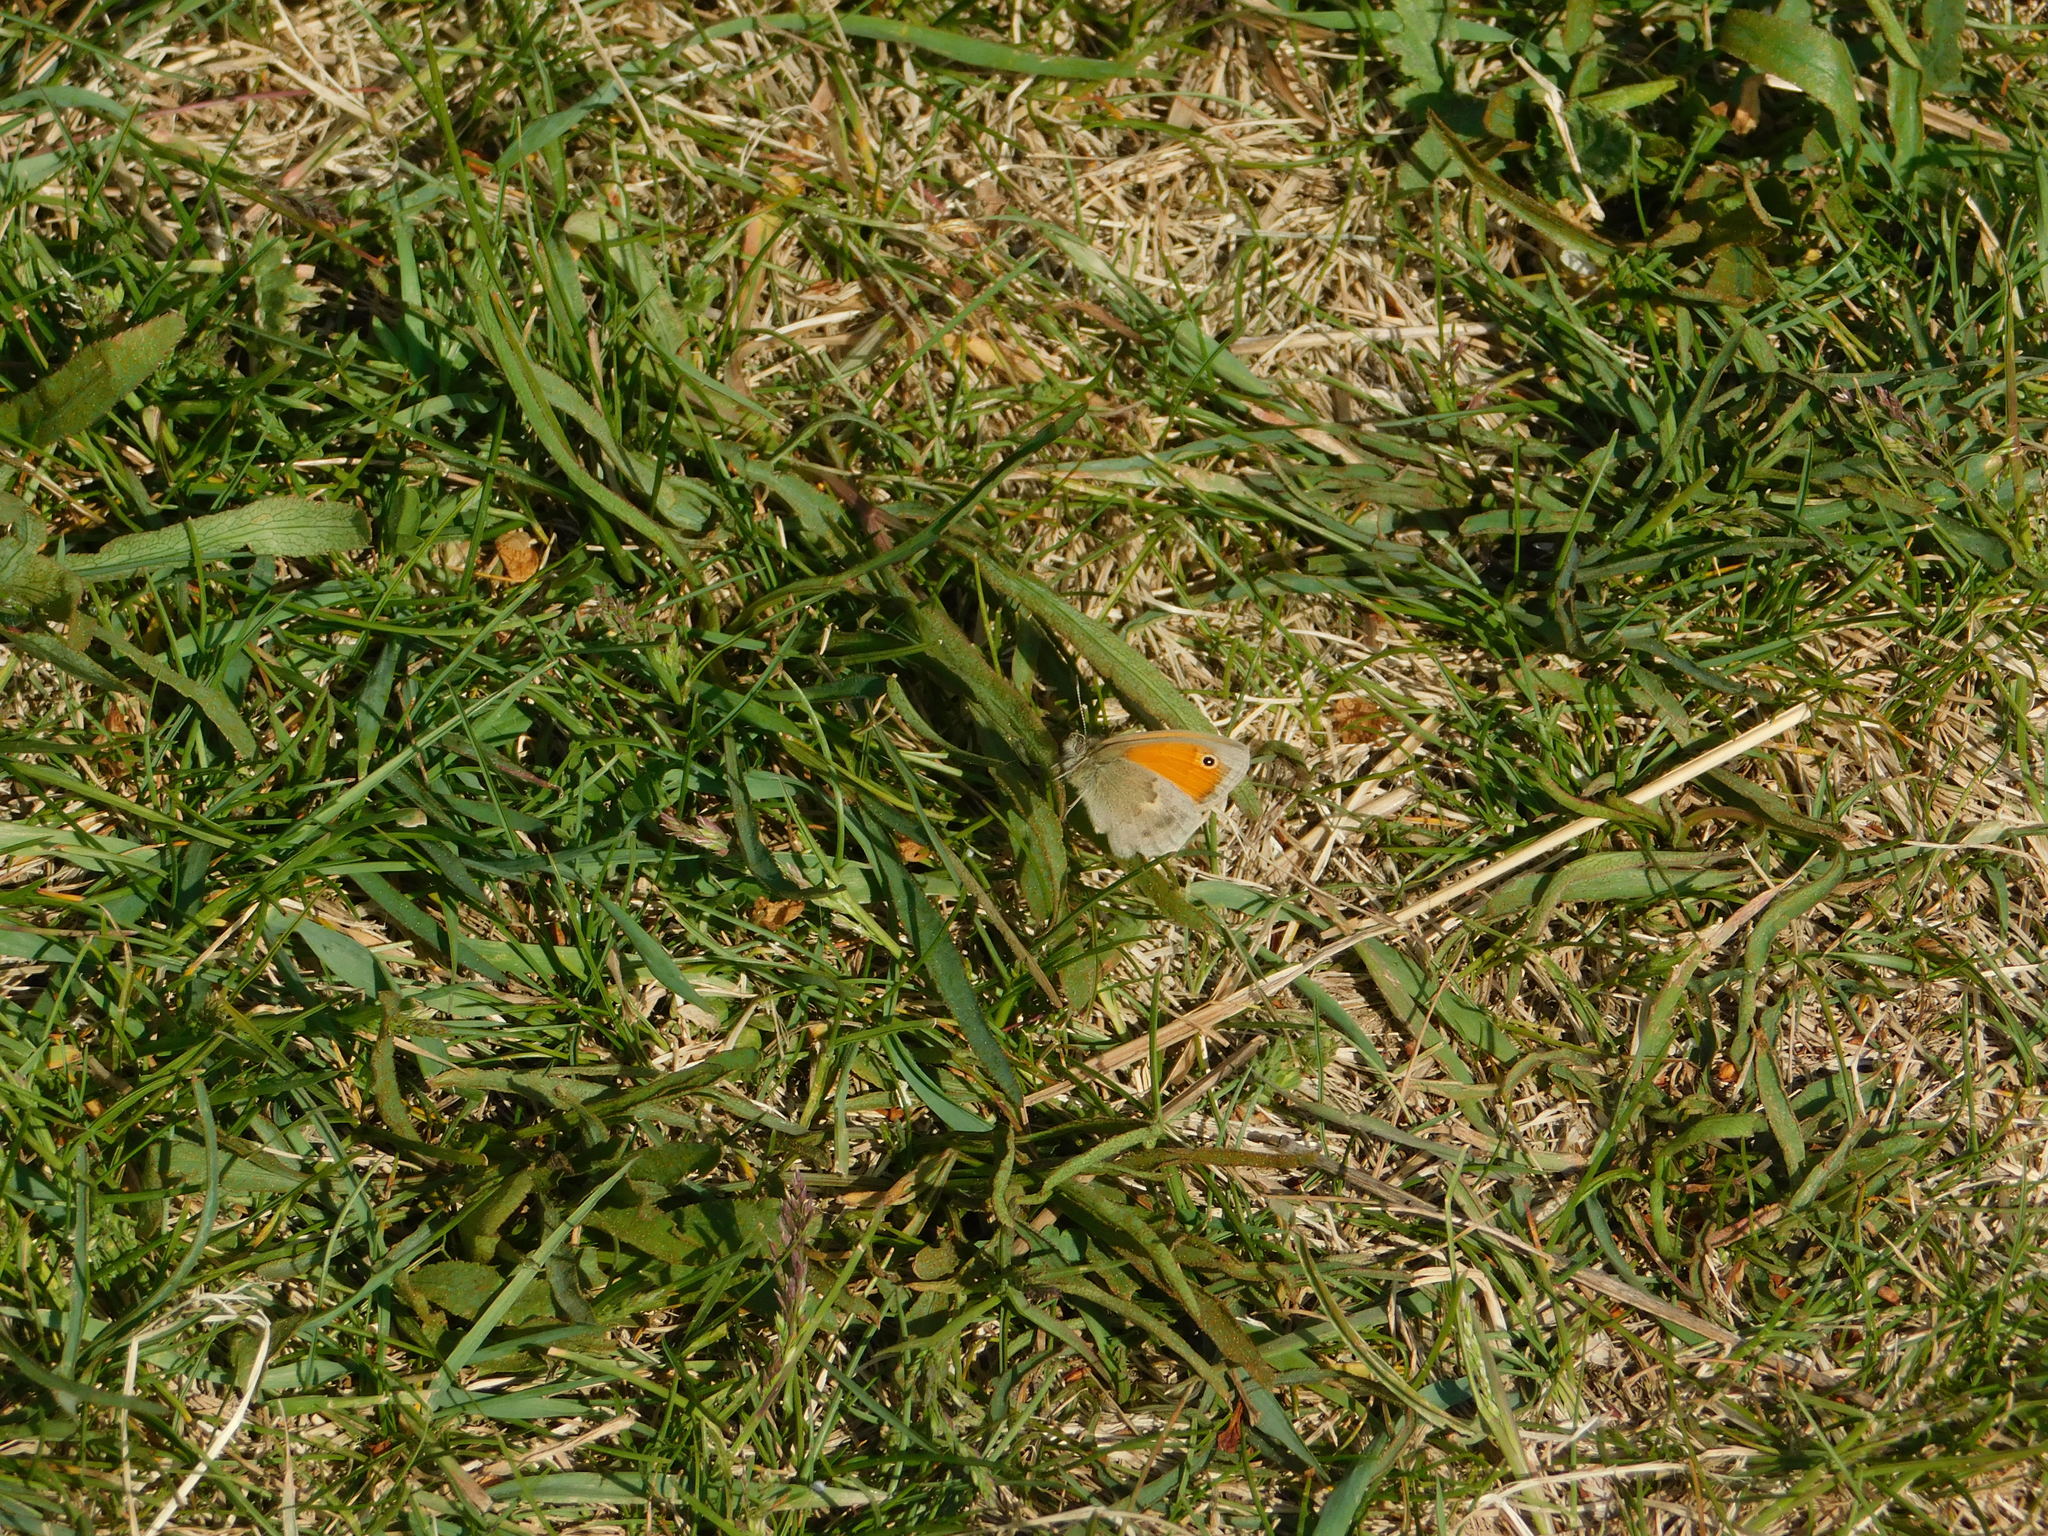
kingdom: Animalia
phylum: Arthropoda
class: Insecta
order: Lepidoptera
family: Nymphalidae
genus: Coenonympha
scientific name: Coenonympha pamphilus
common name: Small heath
